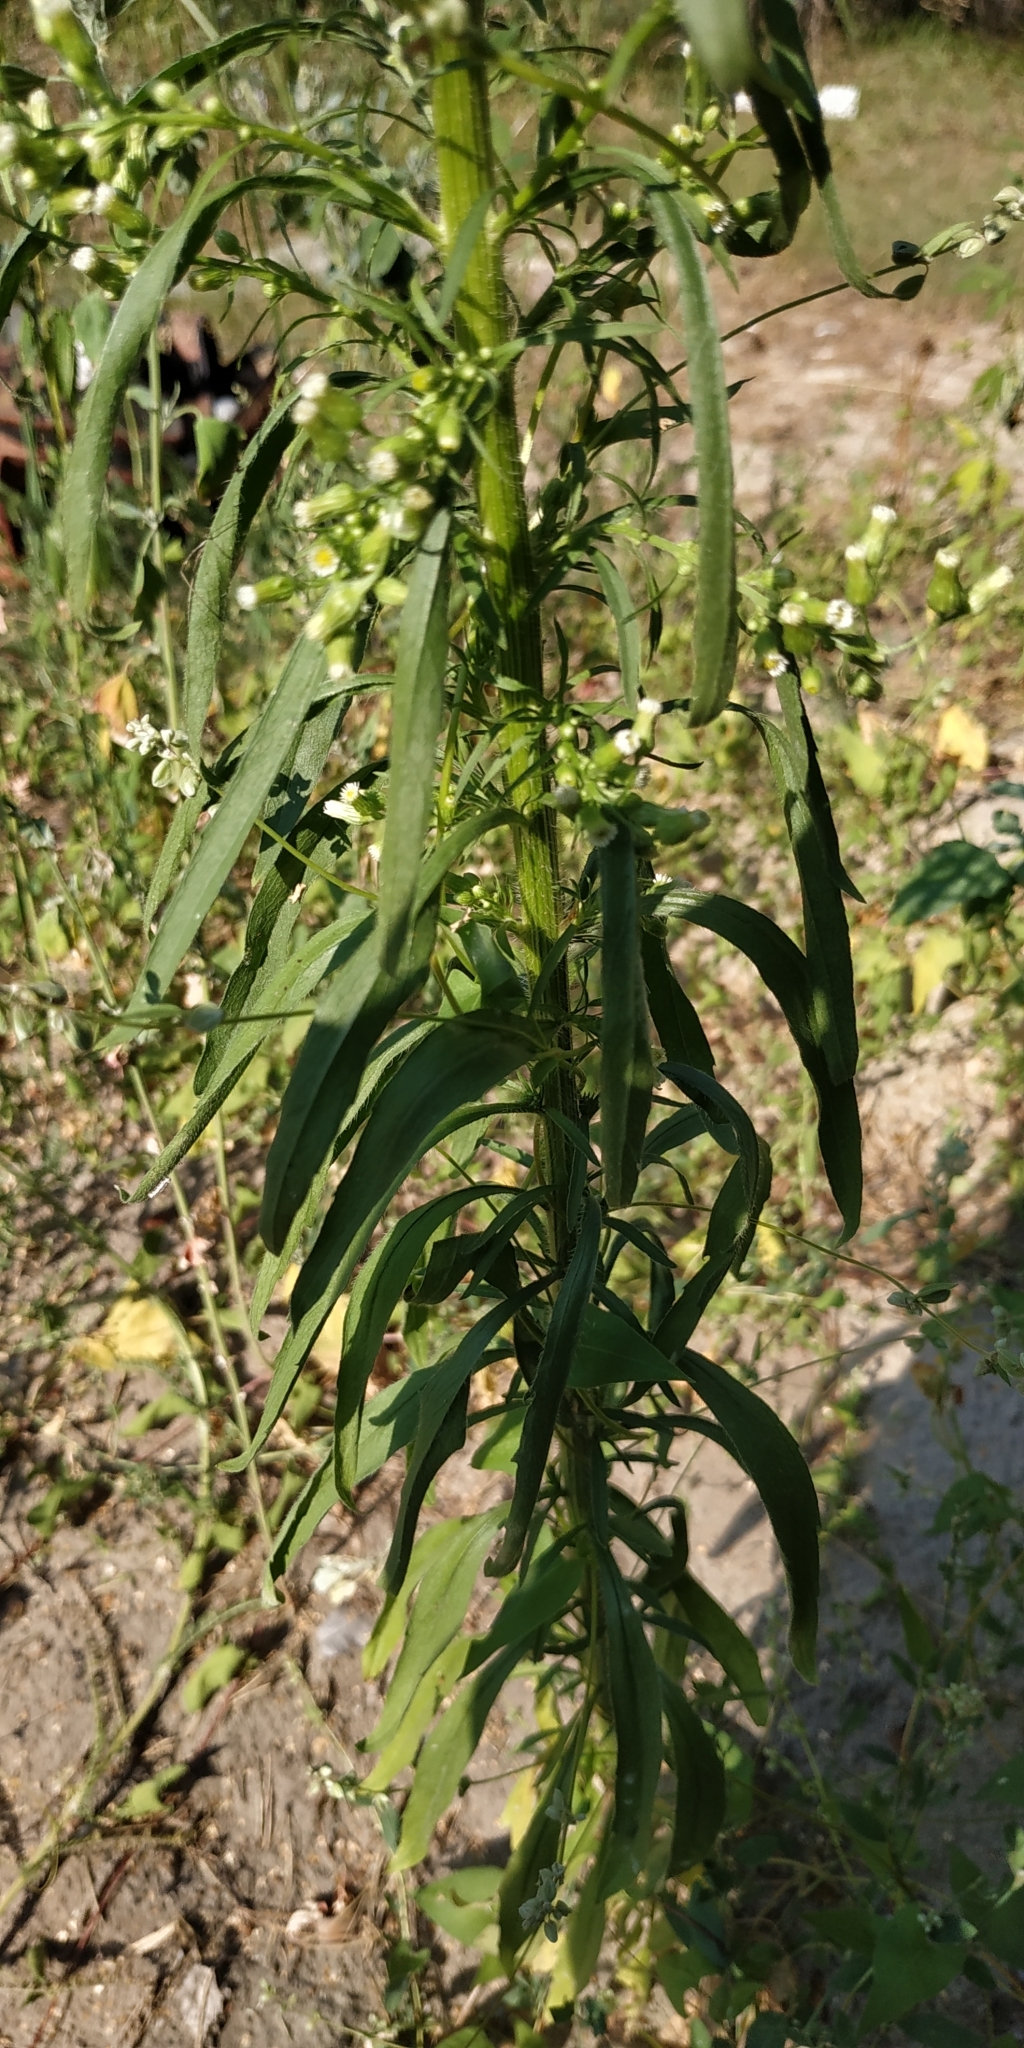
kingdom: Plantae
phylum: Tracheophyta
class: Magnoliopsida
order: Asterales
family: Asteraceae
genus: Erigeron
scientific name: Erigeron canadensis
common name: Canadian fleabane
